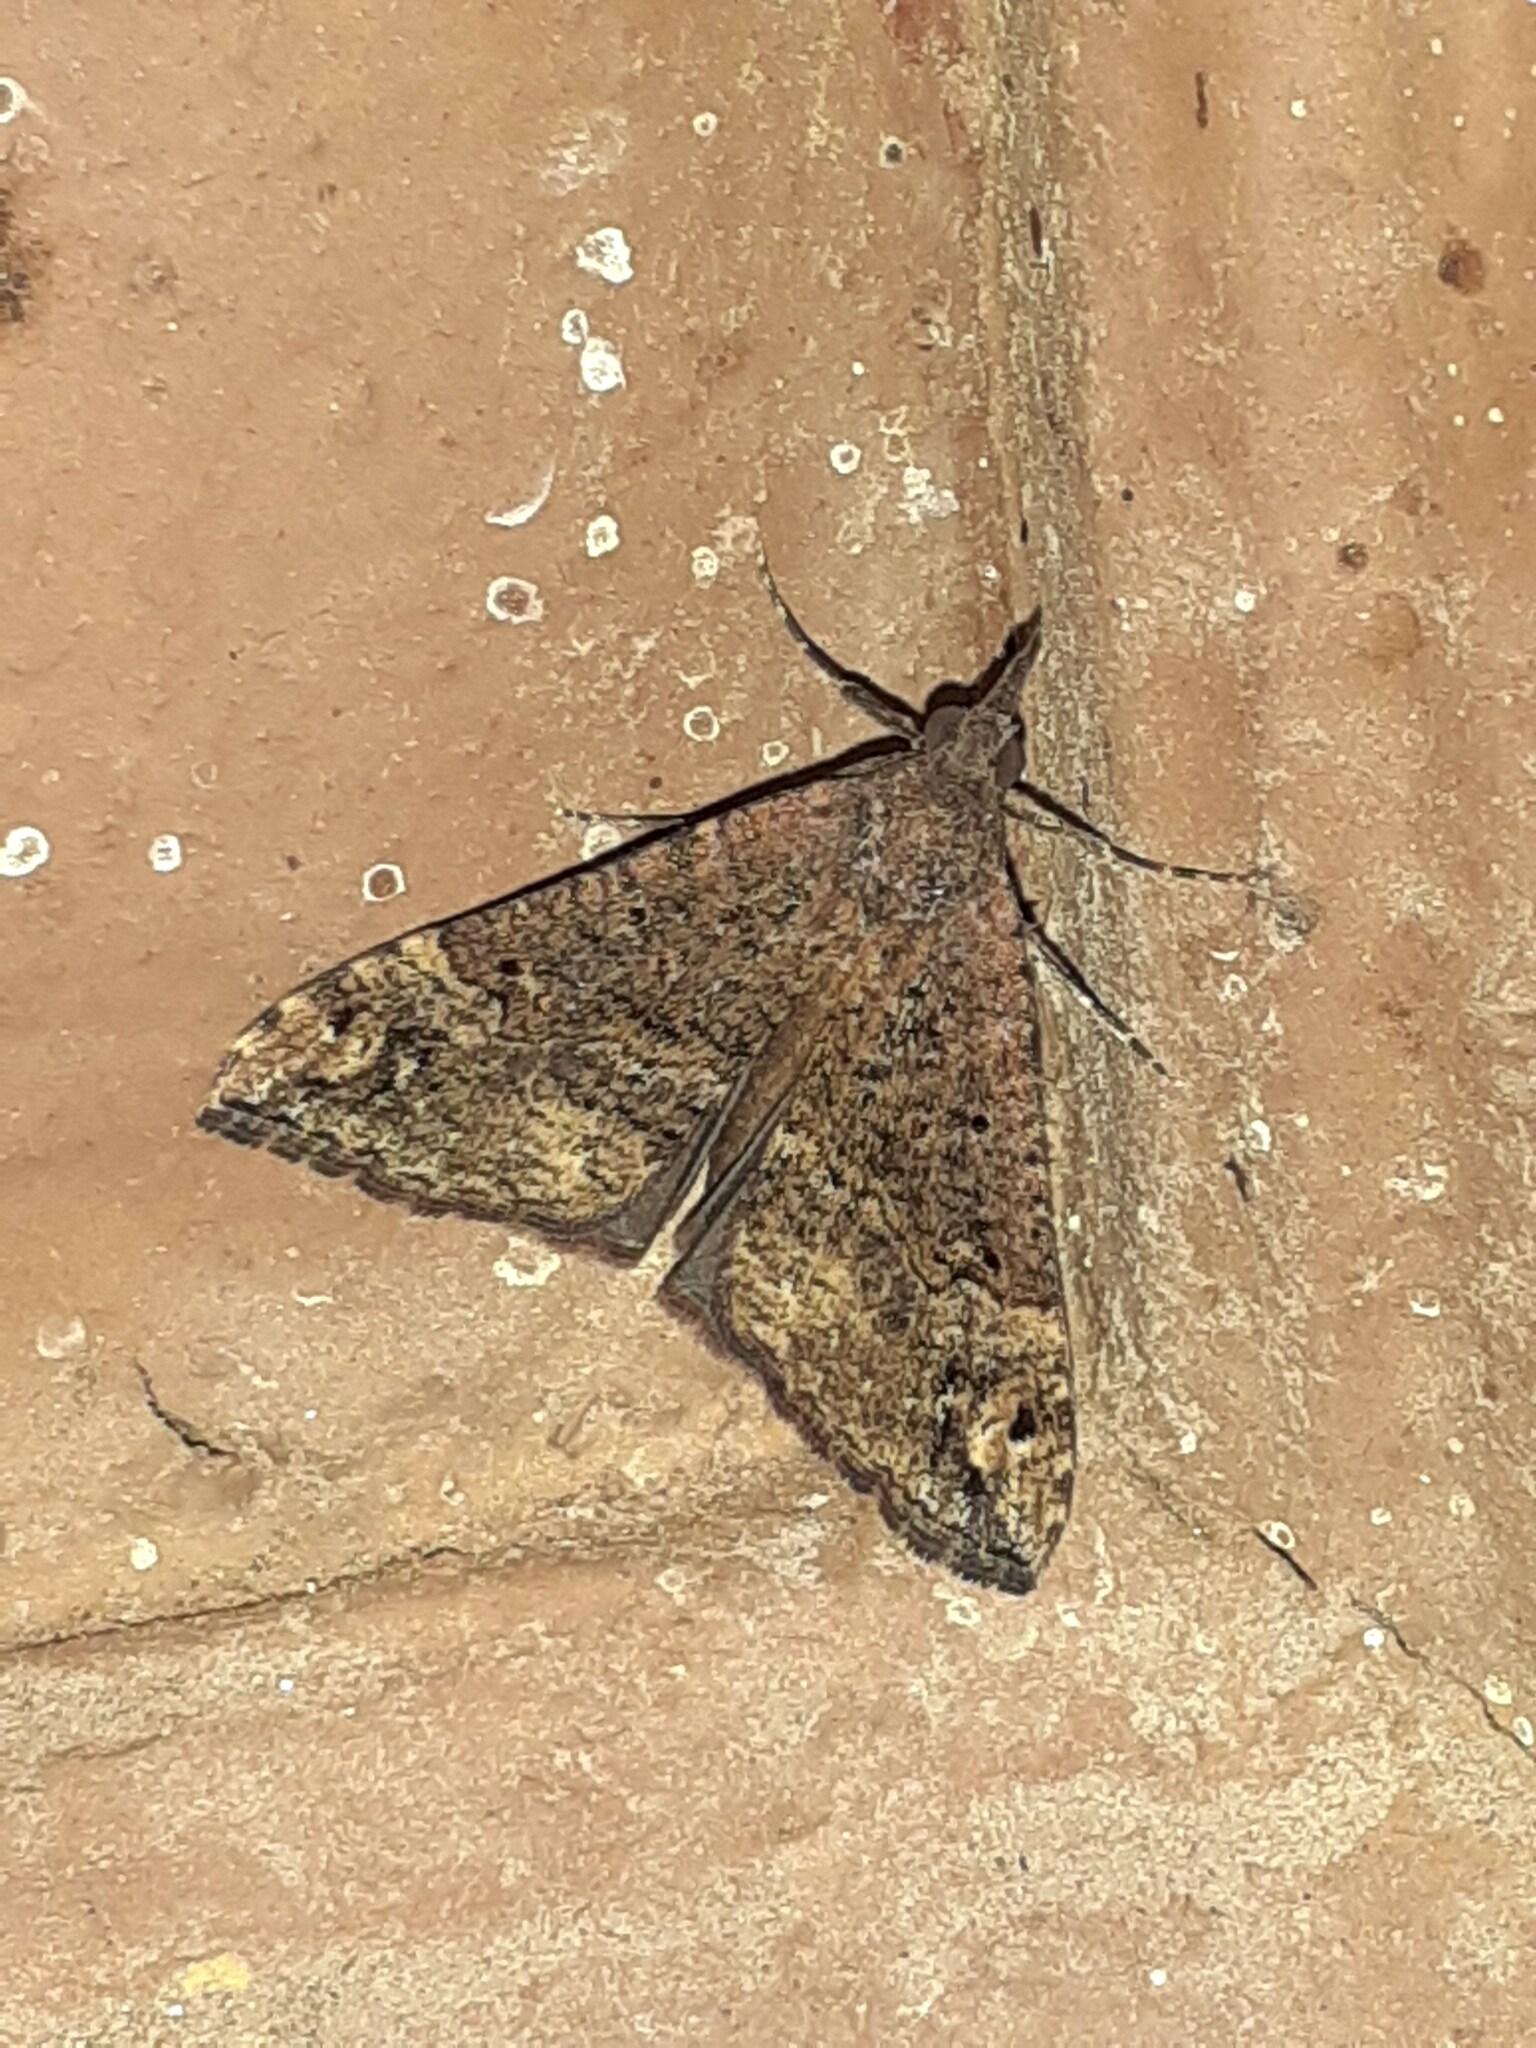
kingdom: Animalia
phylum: Arthropoda
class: Insecta
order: Lepidoptera
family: Erebidae
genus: Hypena
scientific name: Hypena obsitalis
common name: Bloxworth snout
